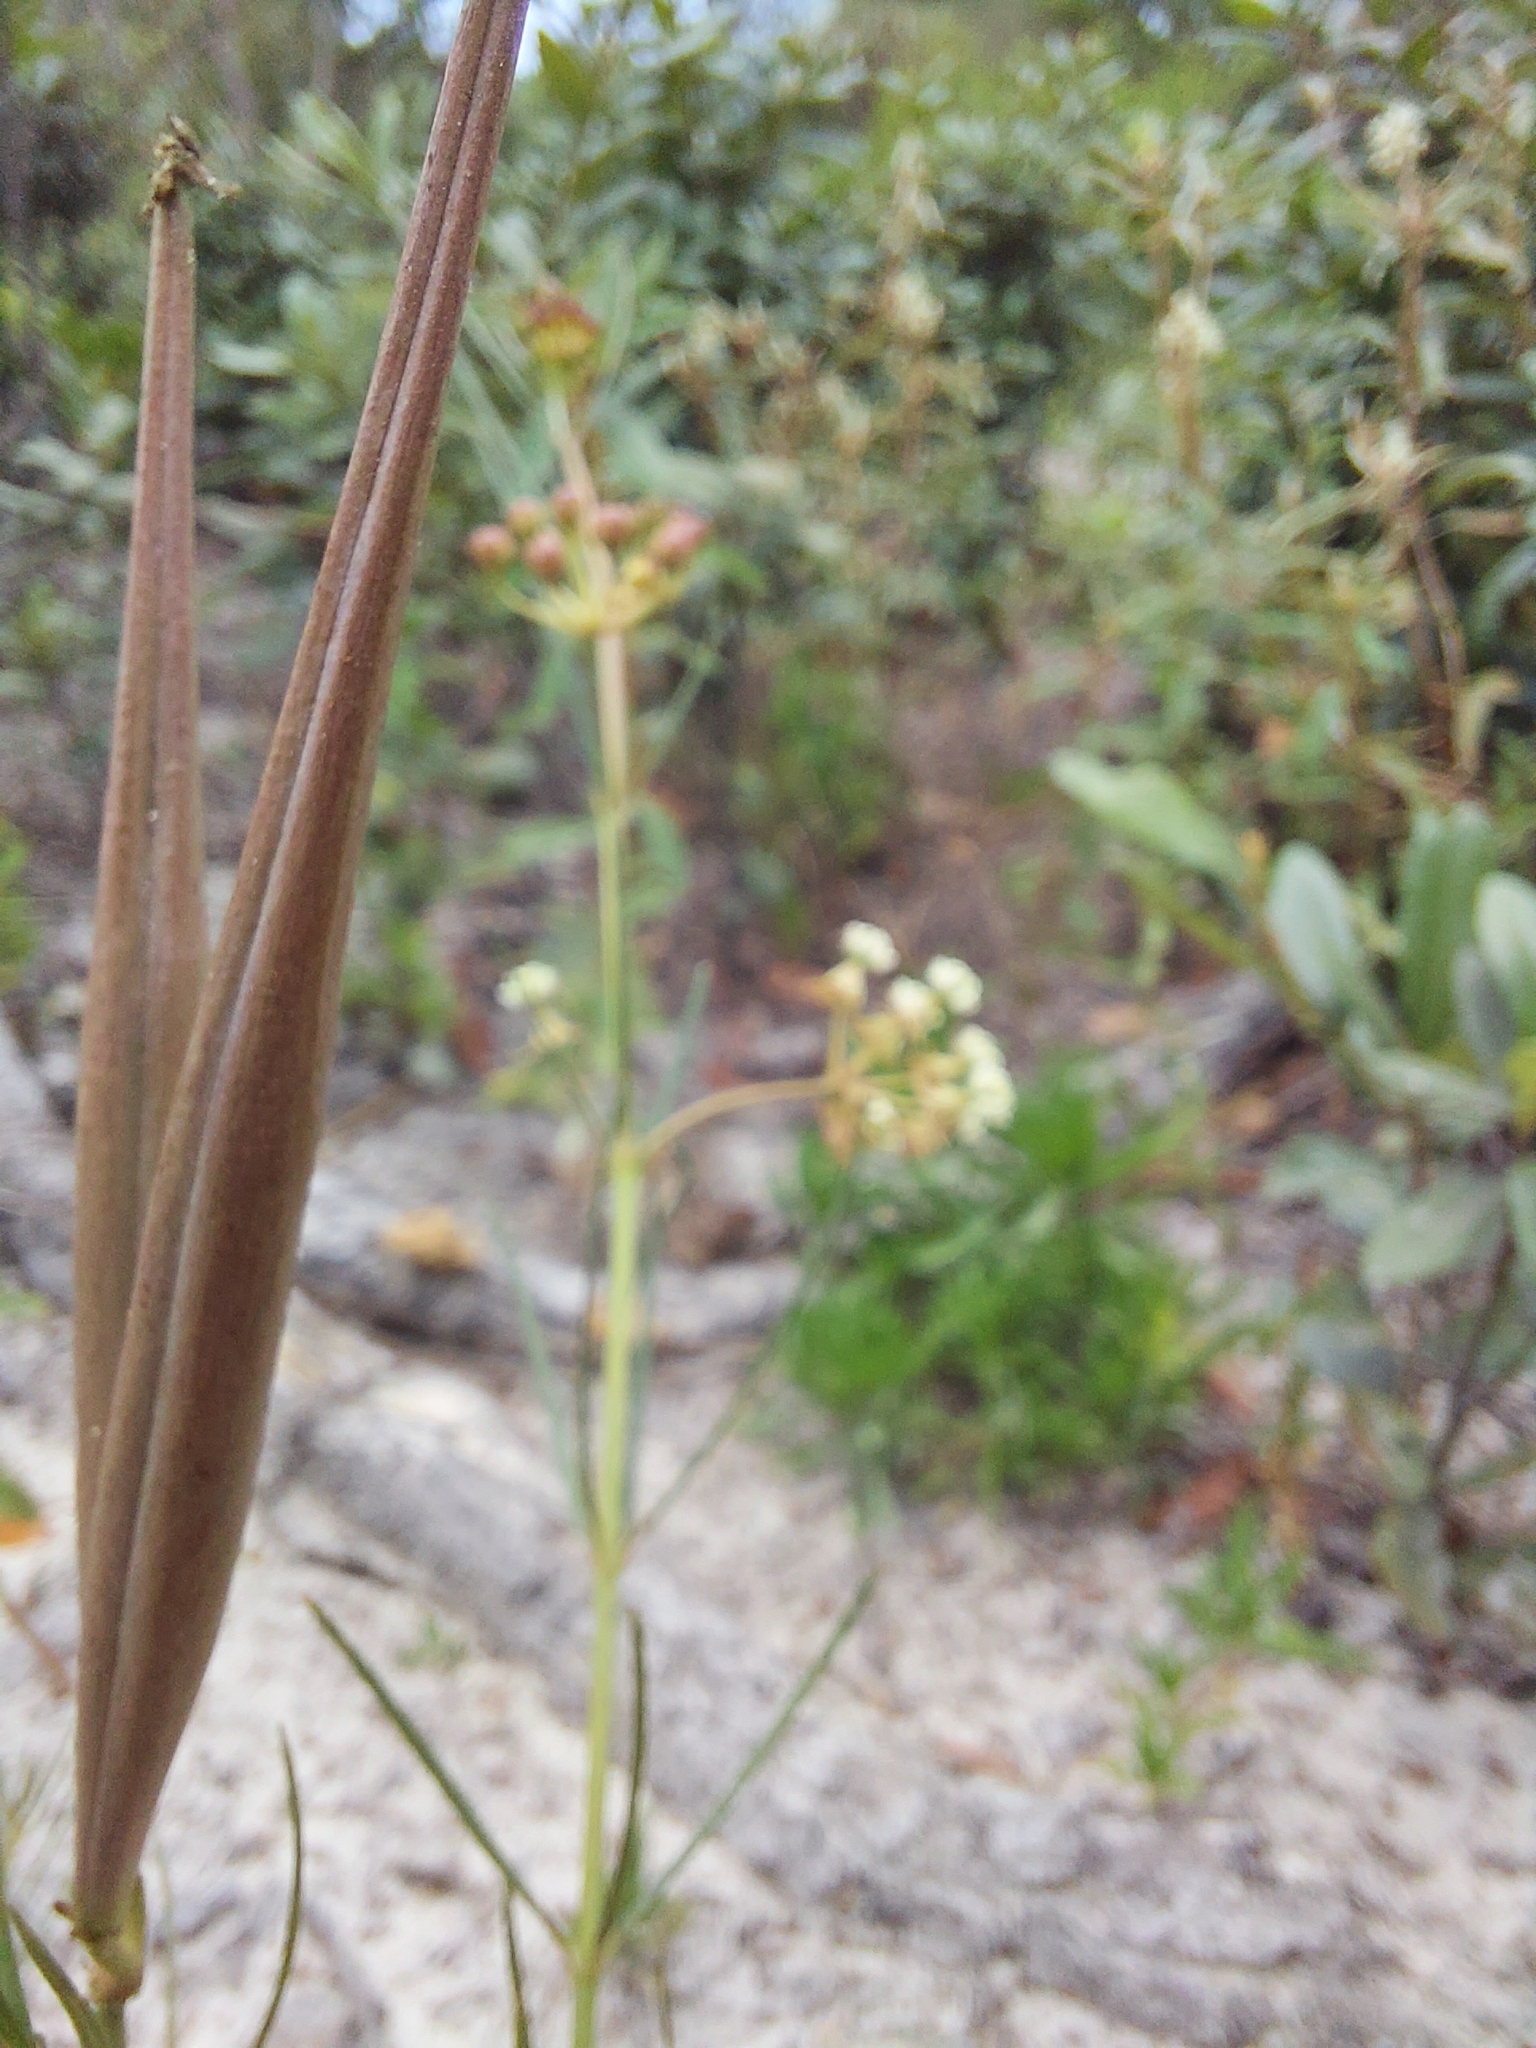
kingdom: Plantae
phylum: Tracheophyta
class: Magnoliopsida
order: Gentianales
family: Apocynaceae
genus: Asclepias
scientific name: Asclepias verticillata
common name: Eastern whorled milkweed
